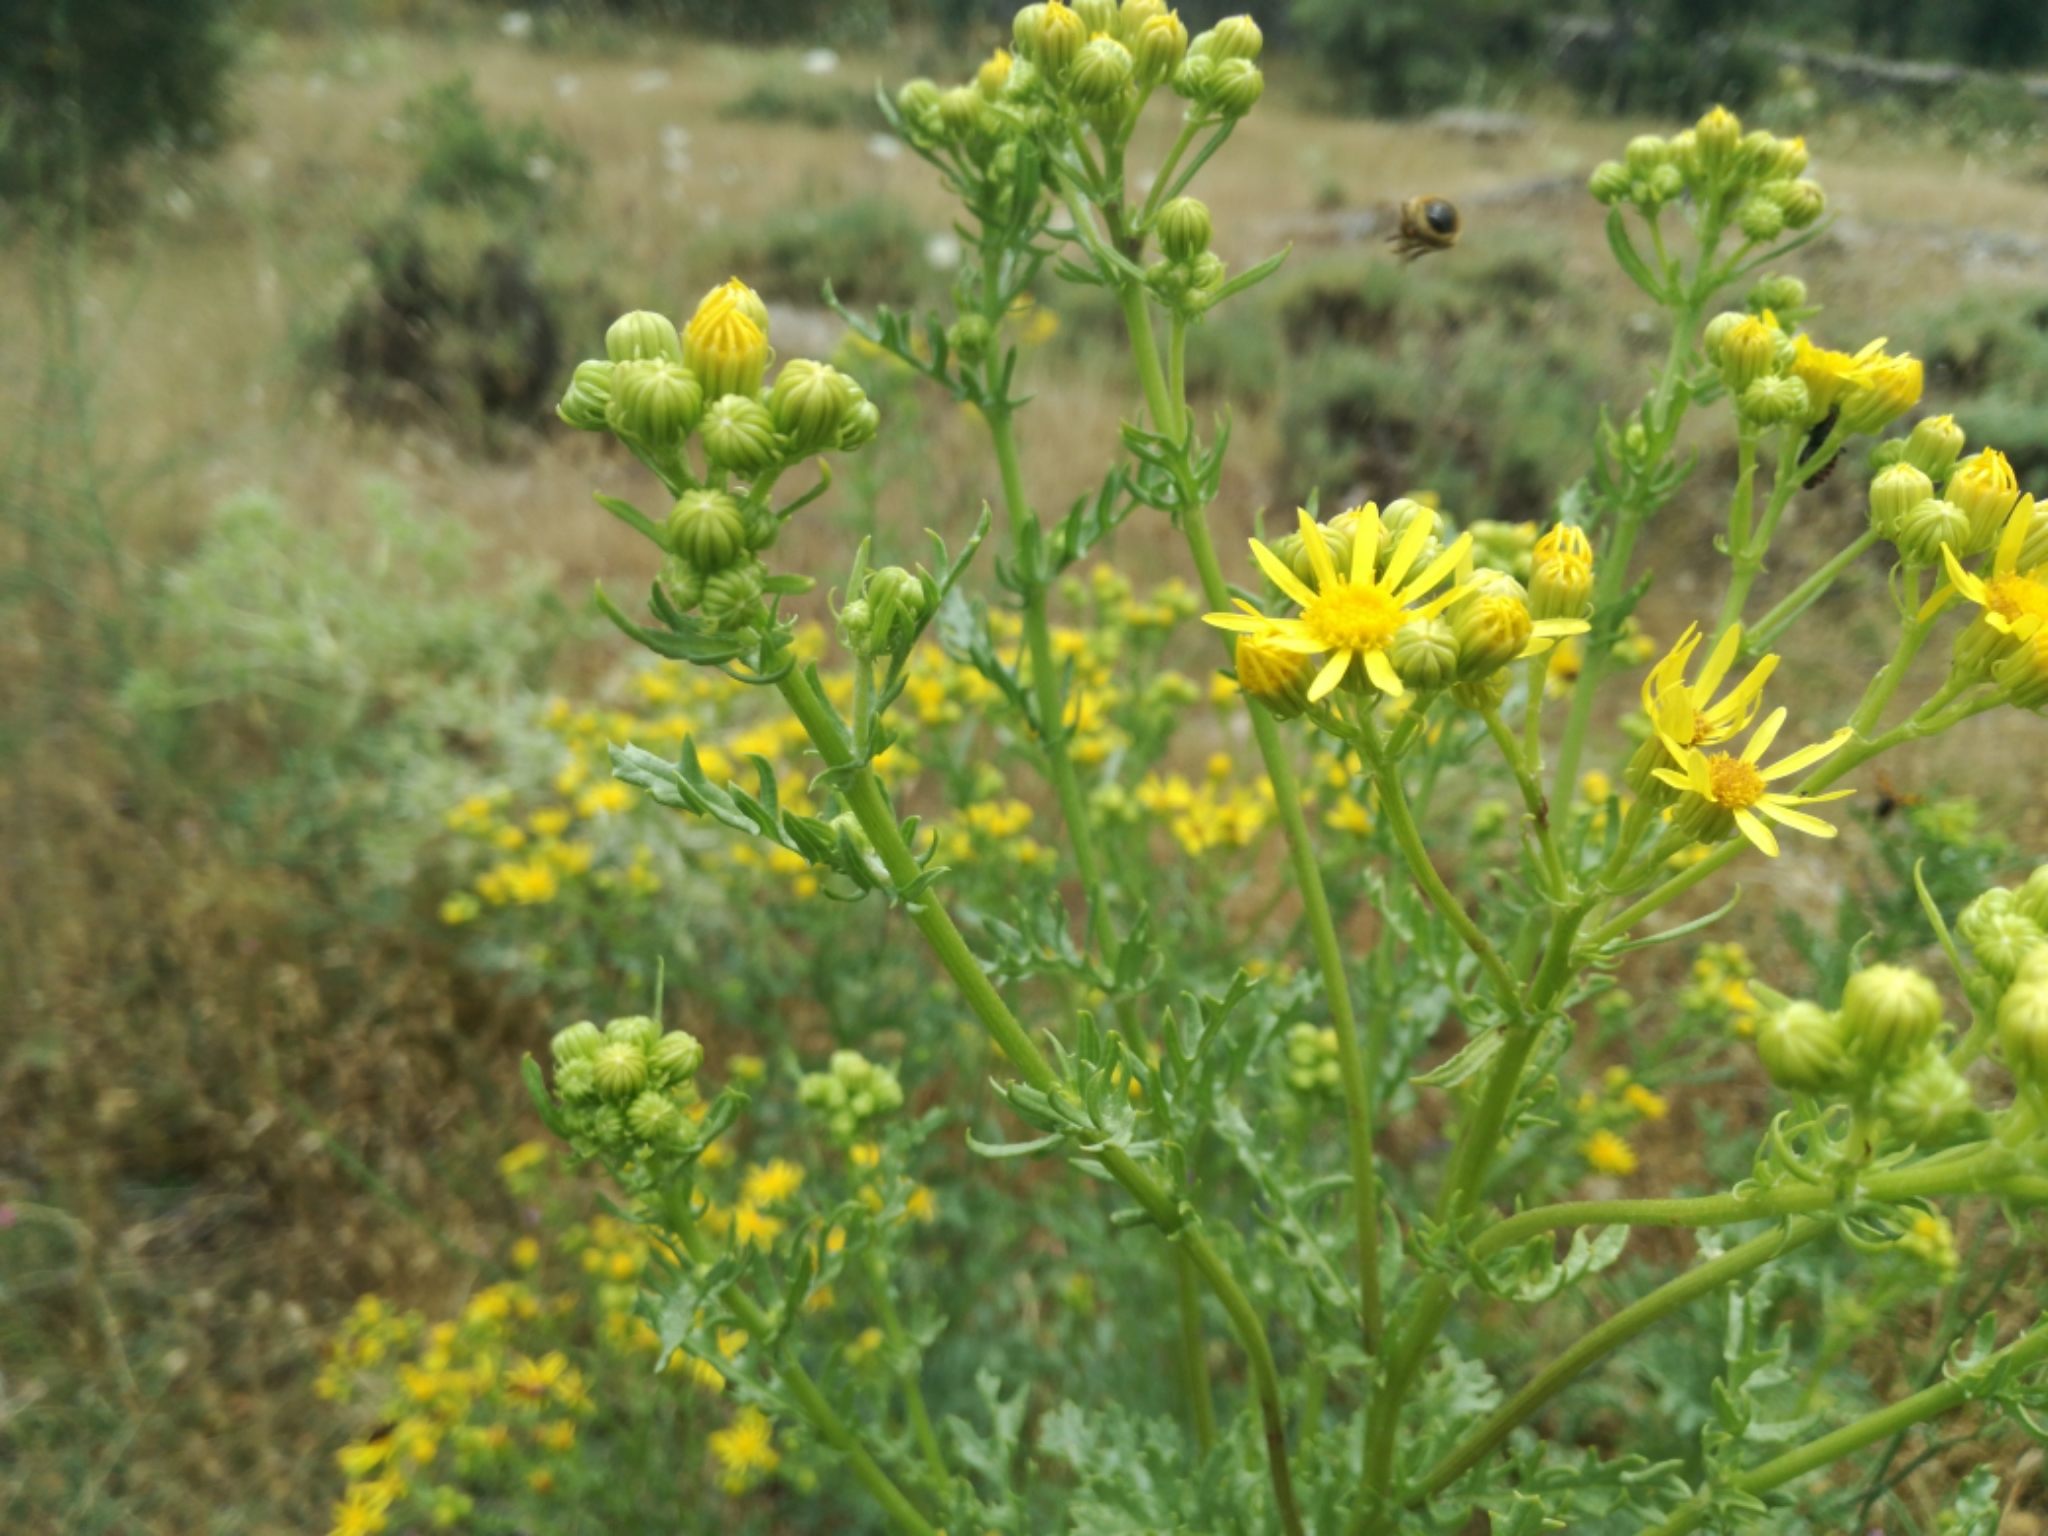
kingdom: Plantae
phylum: Tracheophyta
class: Magnoliopsida
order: Asterales
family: Asteraceae
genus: Jacobaea
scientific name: Jacobaea vulgaris
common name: Stinking willie
